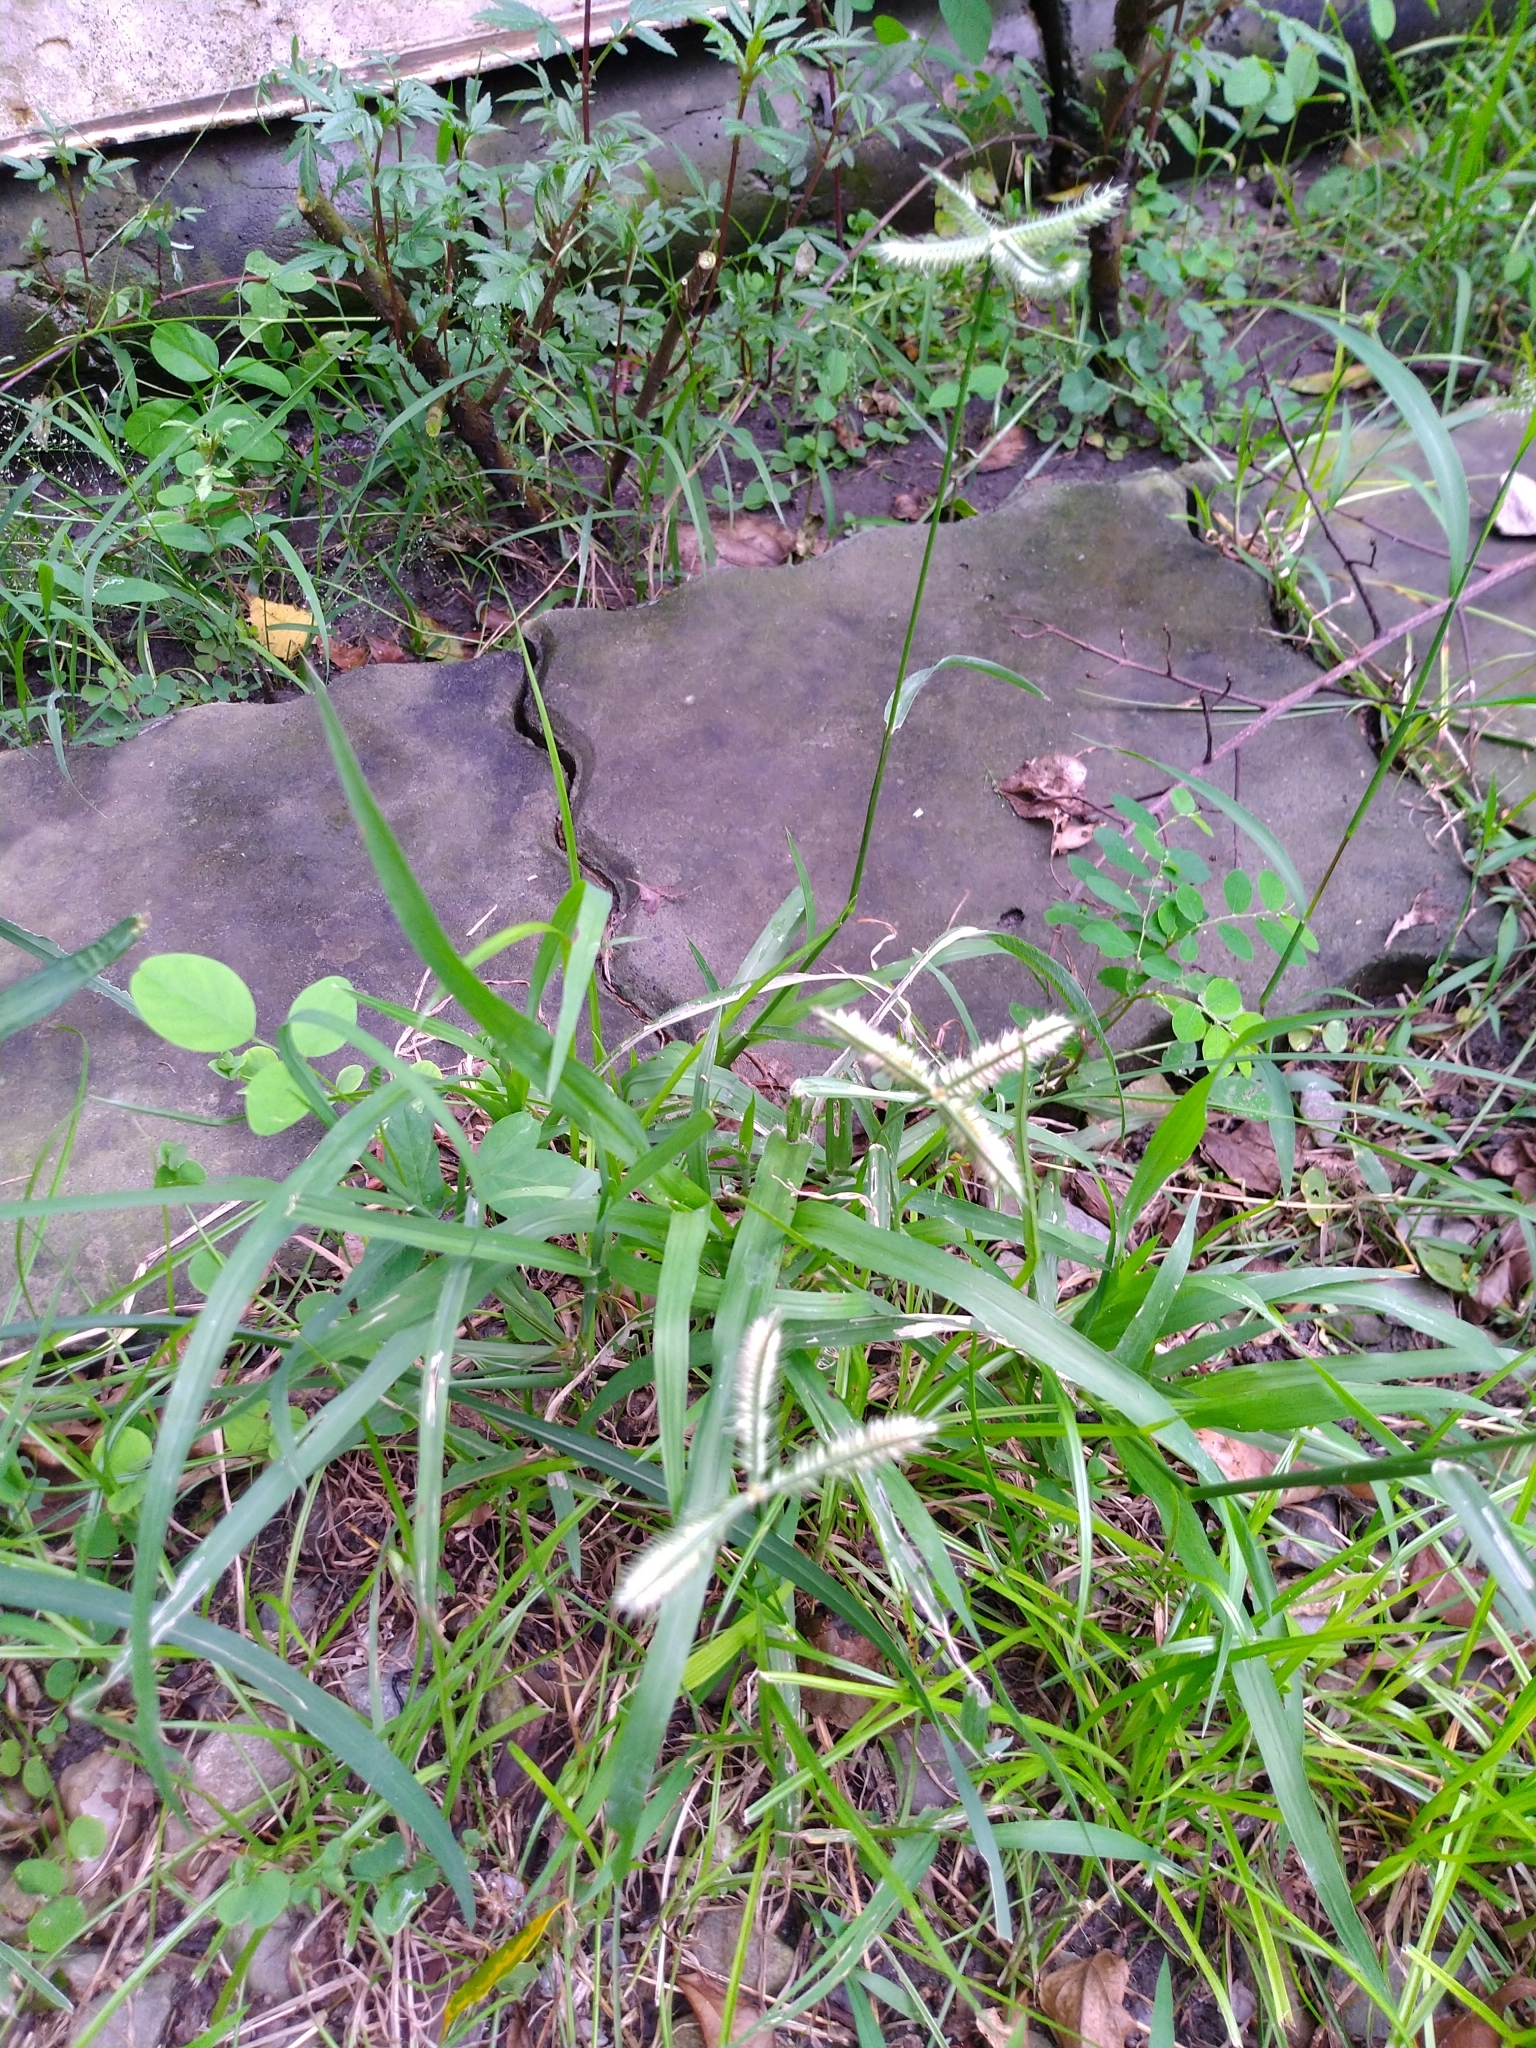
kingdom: Plantae
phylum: Tracheophyta
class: Liliopsida
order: Poales
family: Poaceae
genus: Dactyloctenium
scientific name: Dactyloctenium aegyptium
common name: Egyptian grass
